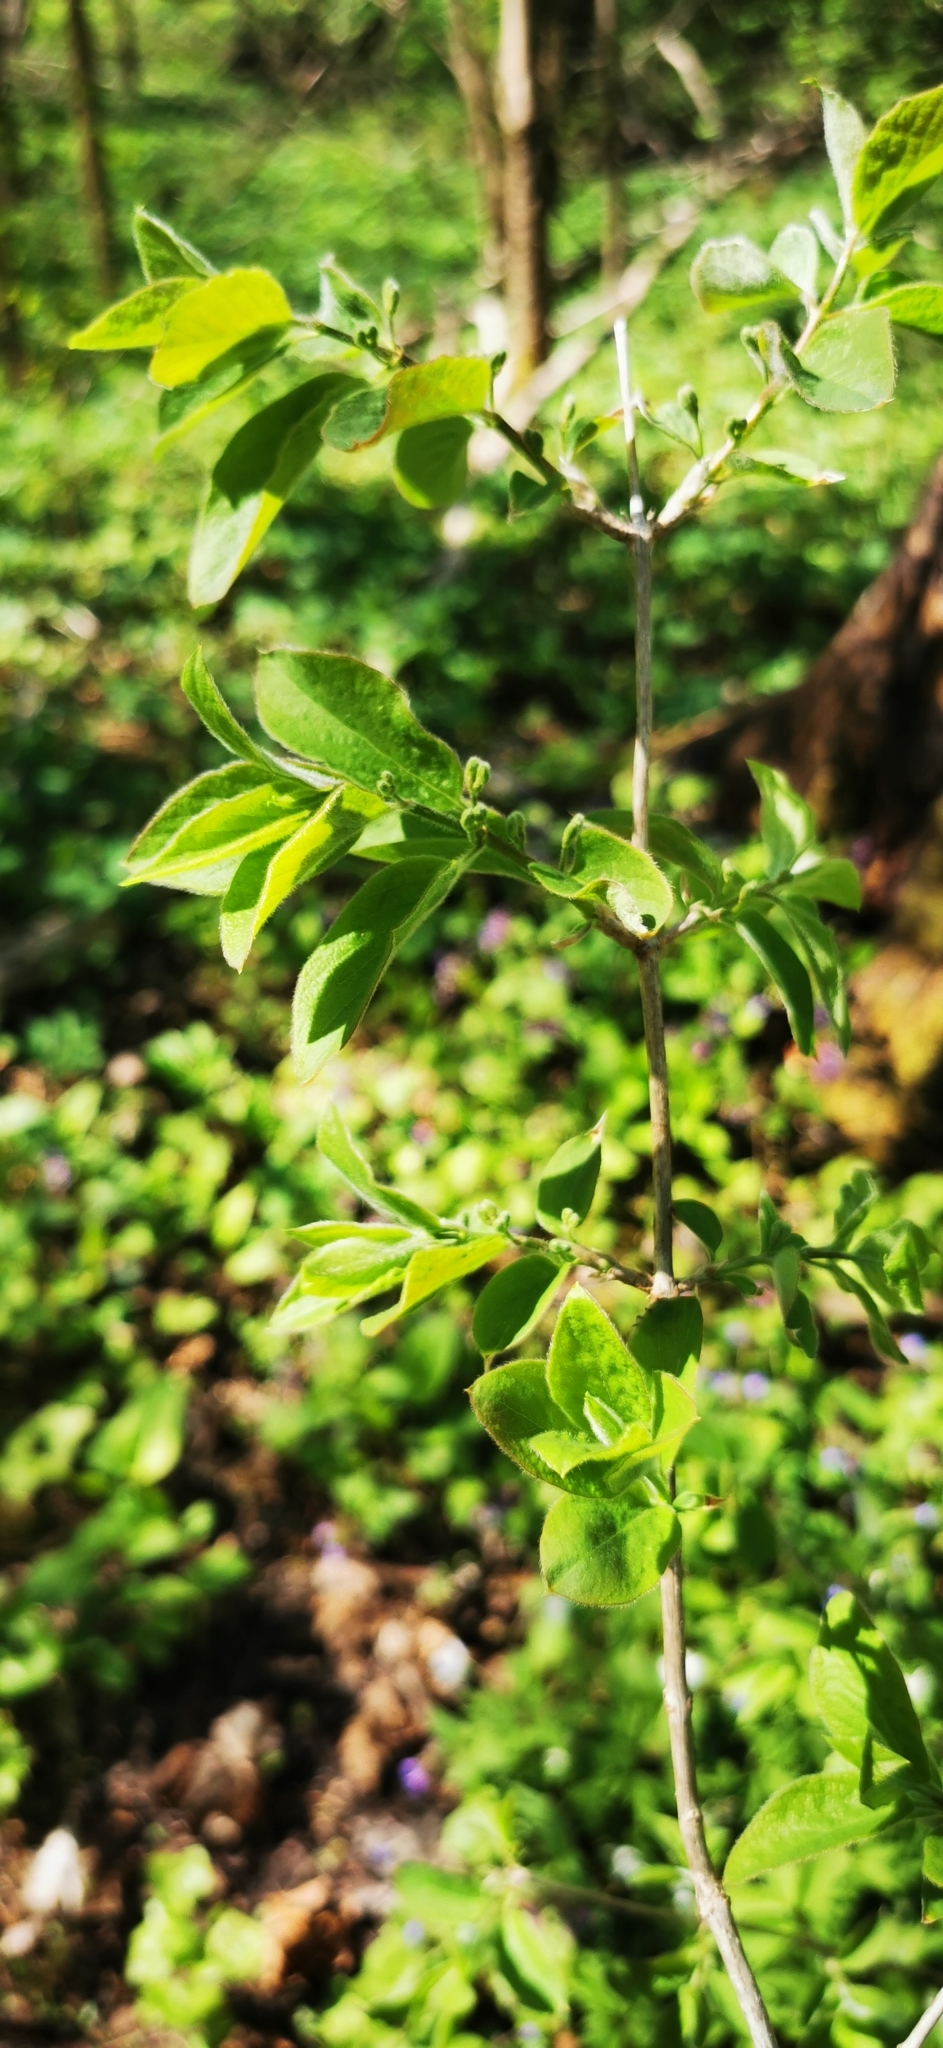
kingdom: Plantae
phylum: Tracheophyta
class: Magnoliopsida
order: Dipsacales
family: Caprifoliaceae
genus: Lonicera
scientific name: Lonicera xylosteum
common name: Fly honeysuckle
